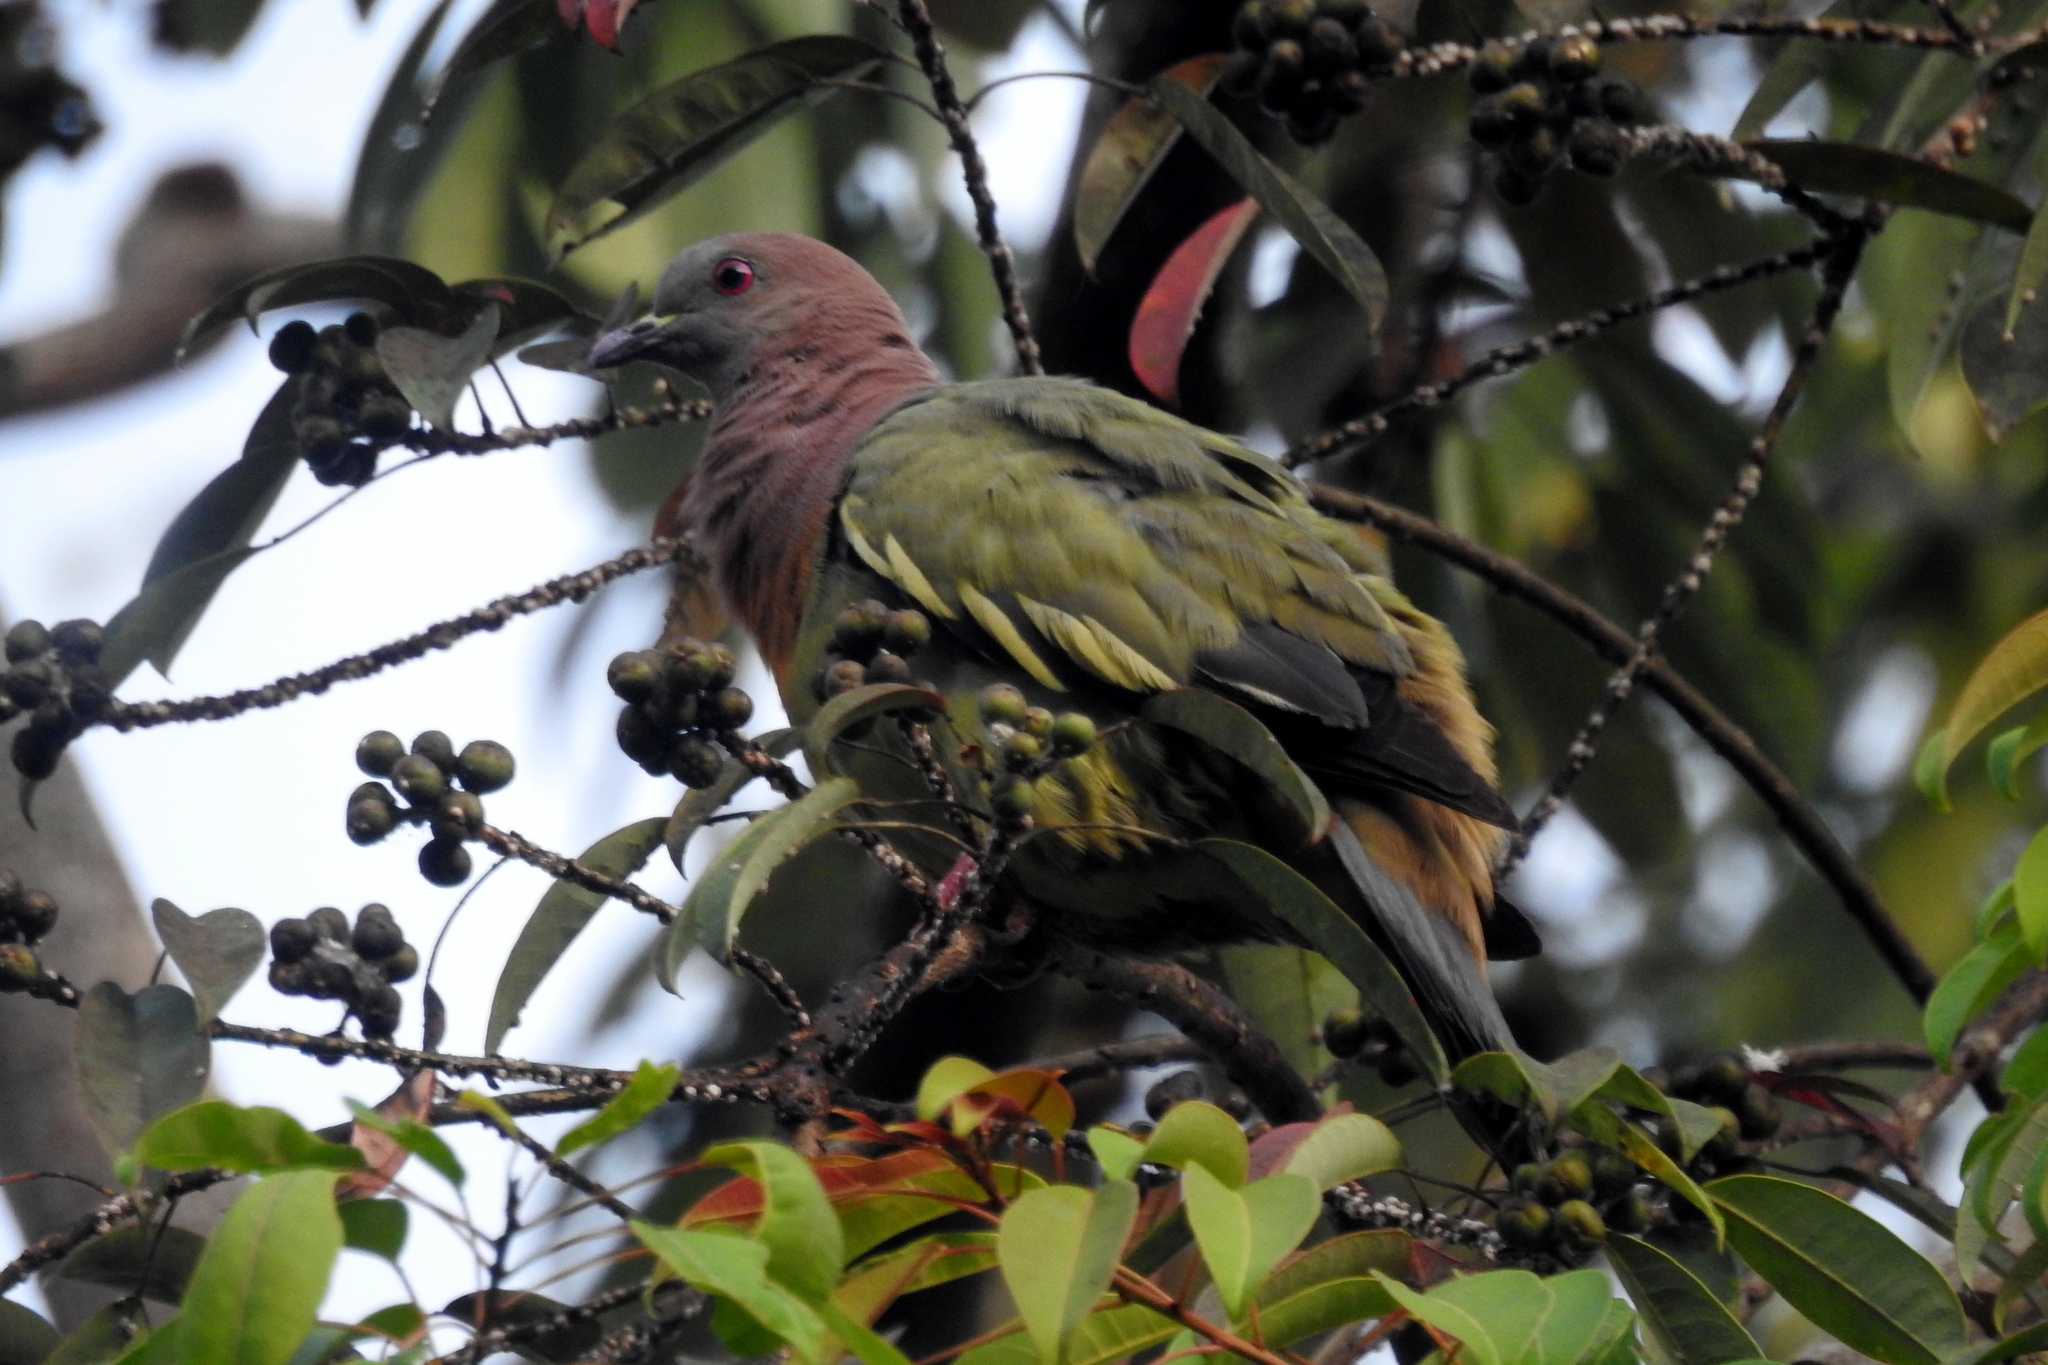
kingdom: Animalia
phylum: Chordata
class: Aves
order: Columbiformes
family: Columbidae
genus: Treron
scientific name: Treron vernans
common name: Pink-necked green pigeon
